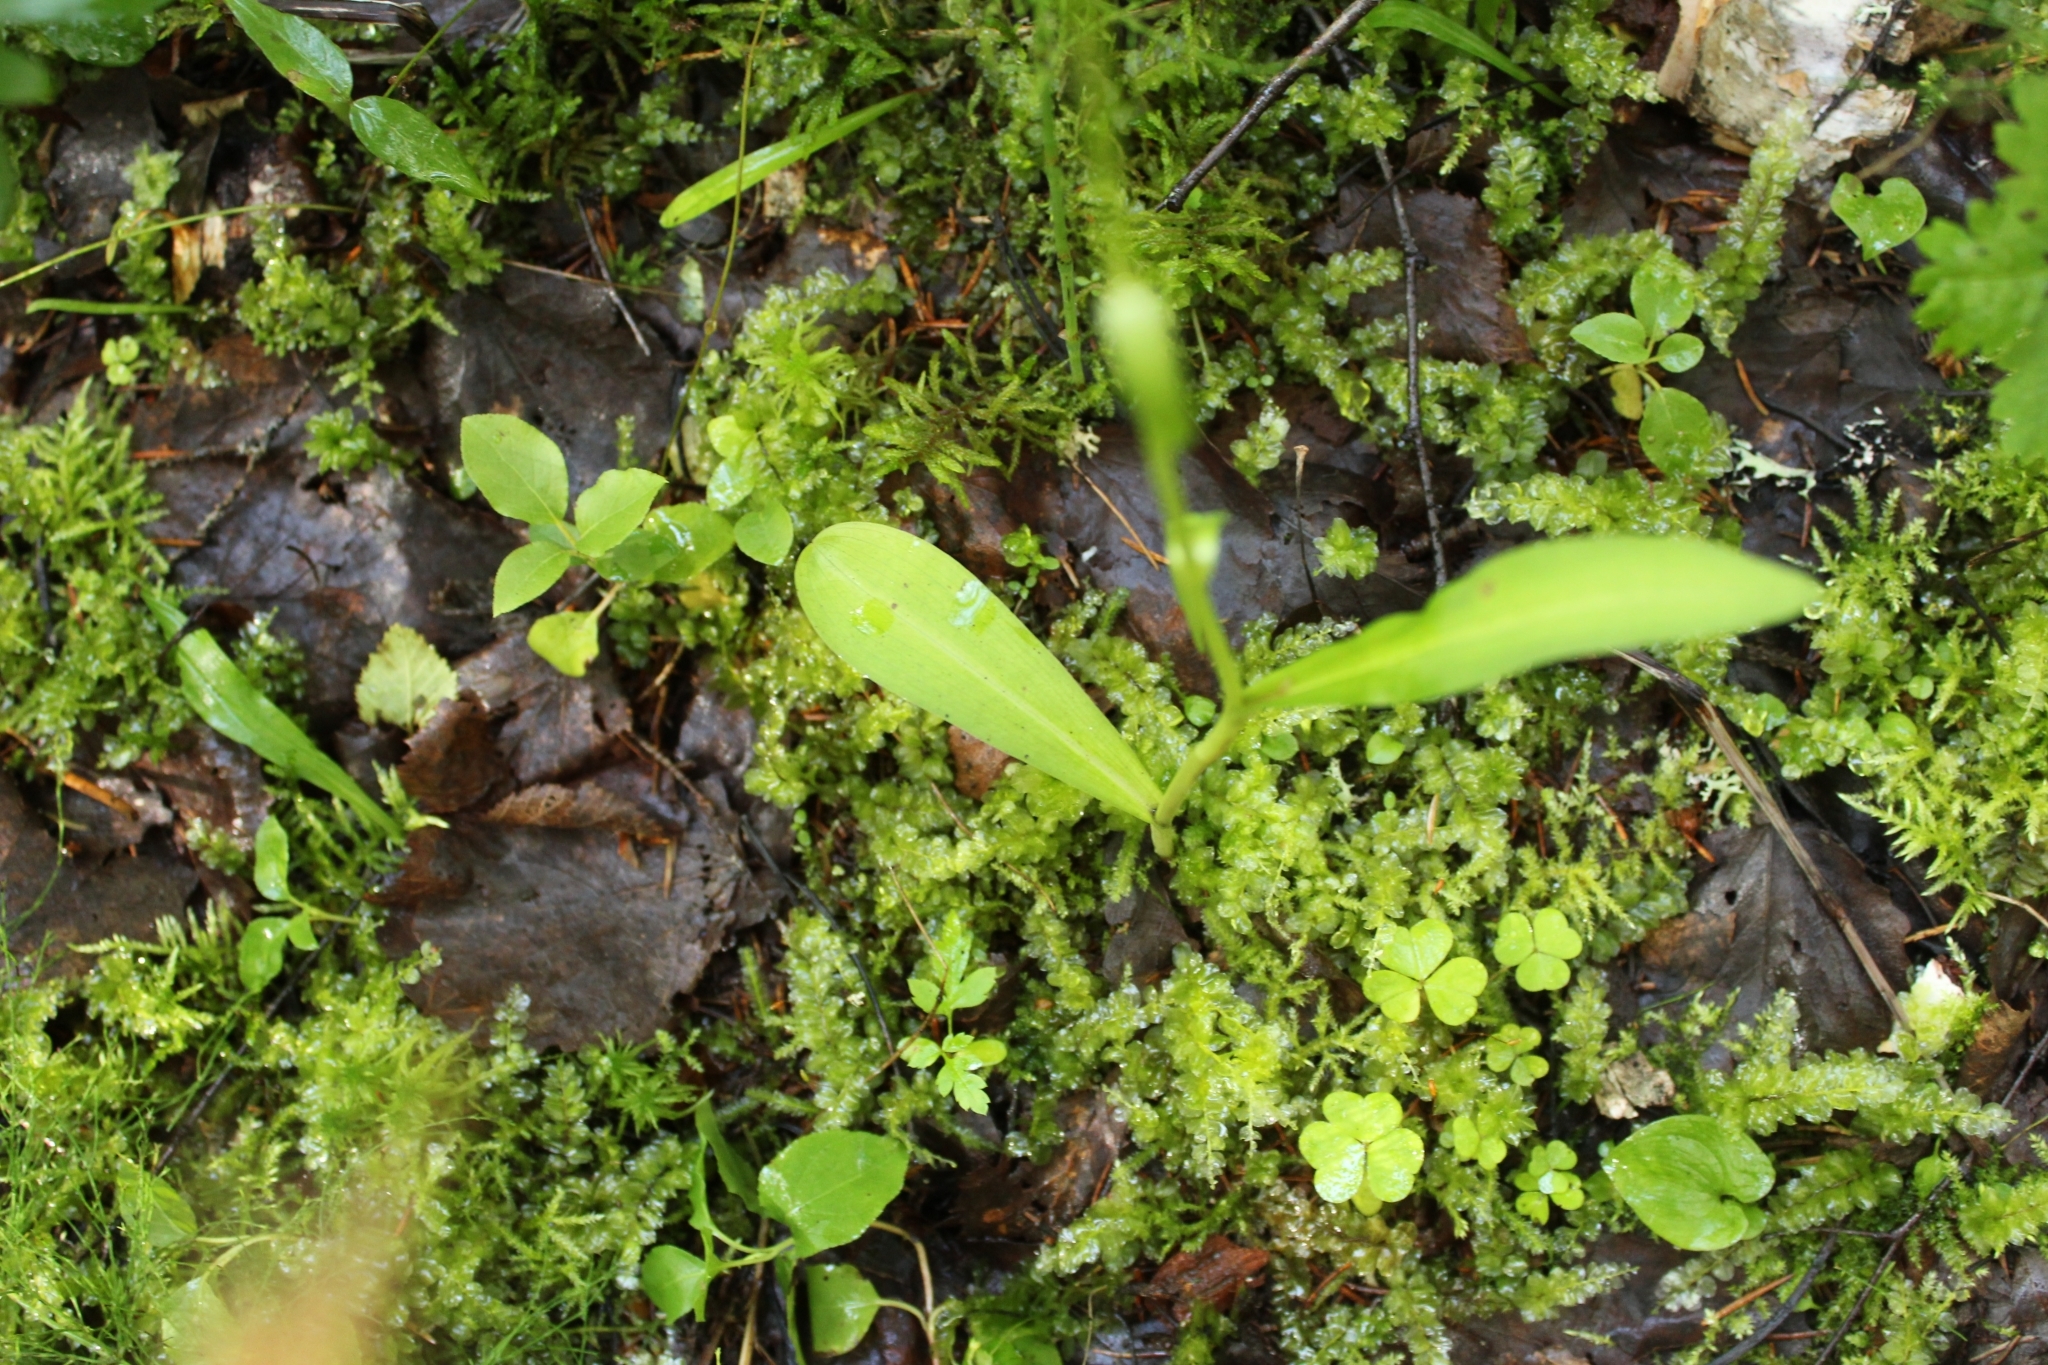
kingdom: Plantae
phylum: Tracheophyta
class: Liliopsida
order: Asparagales
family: Orchidaceae
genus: Dactylorhiza
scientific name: Dactylorhiza maculata
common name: Heath spotted-orchid
